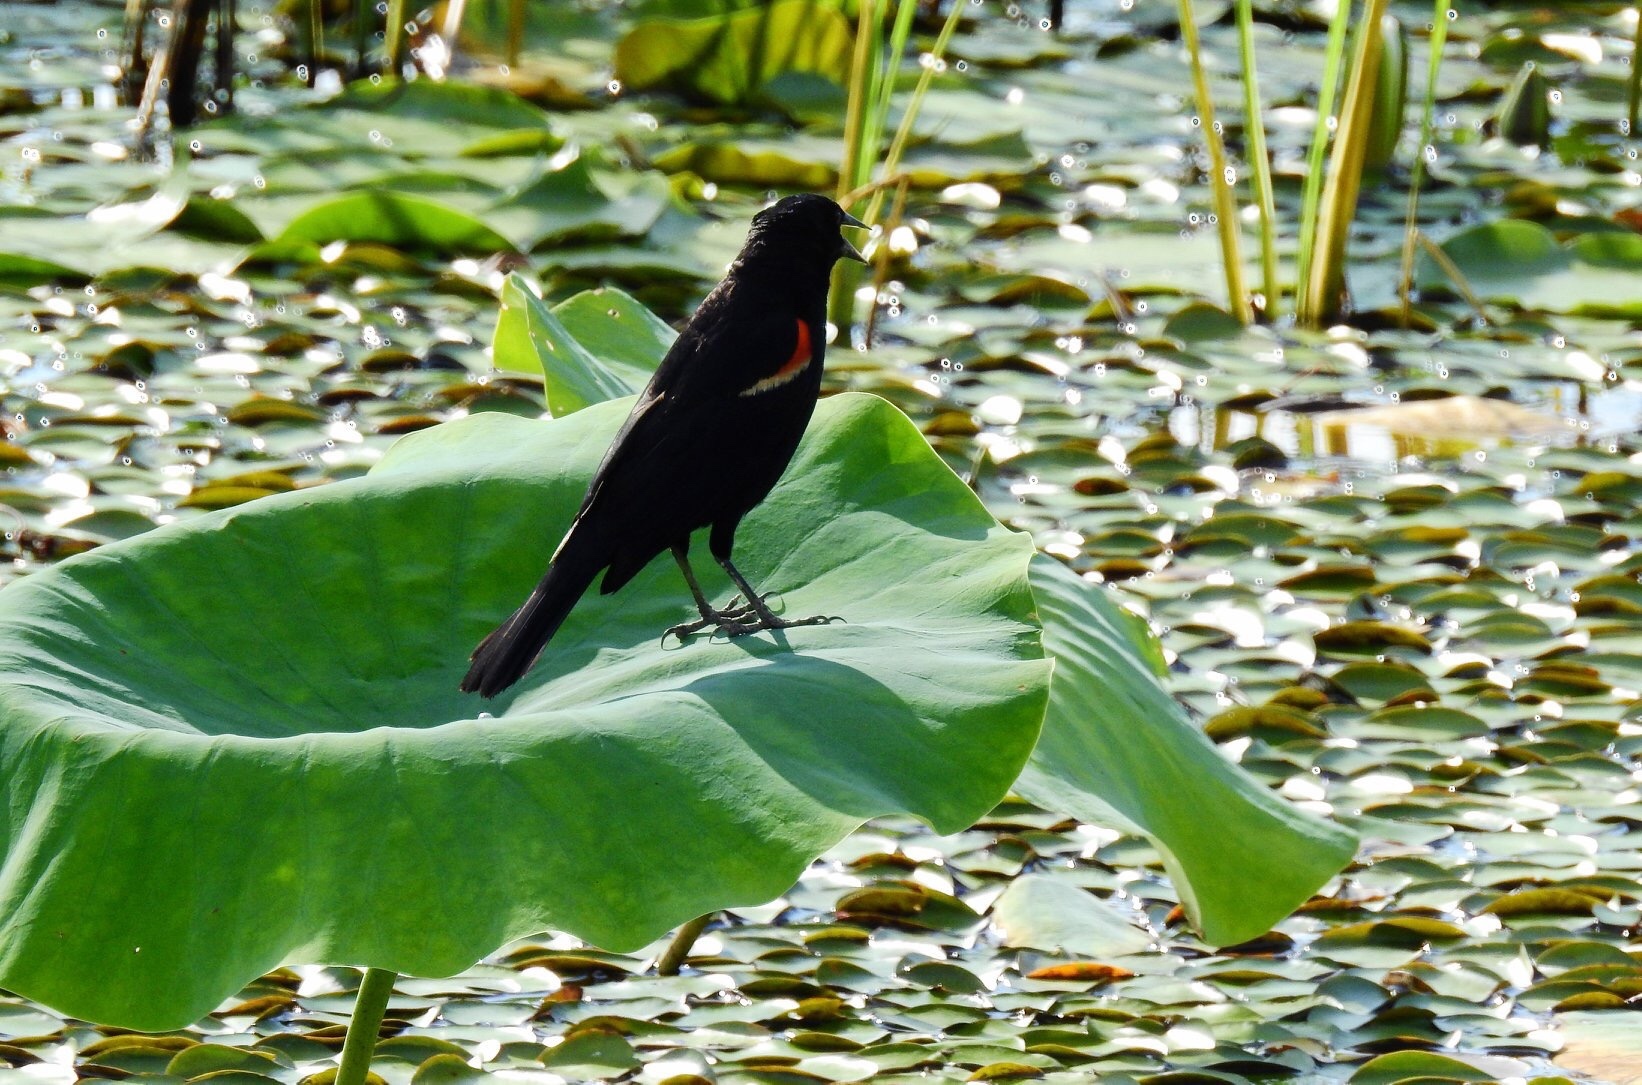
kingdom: Animalia
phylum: Chordata
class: Aves
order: Passeriformes
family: Icteridae
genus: Agelaius
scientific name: Agelaius phoeniceus
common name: Red-winged blackbird
